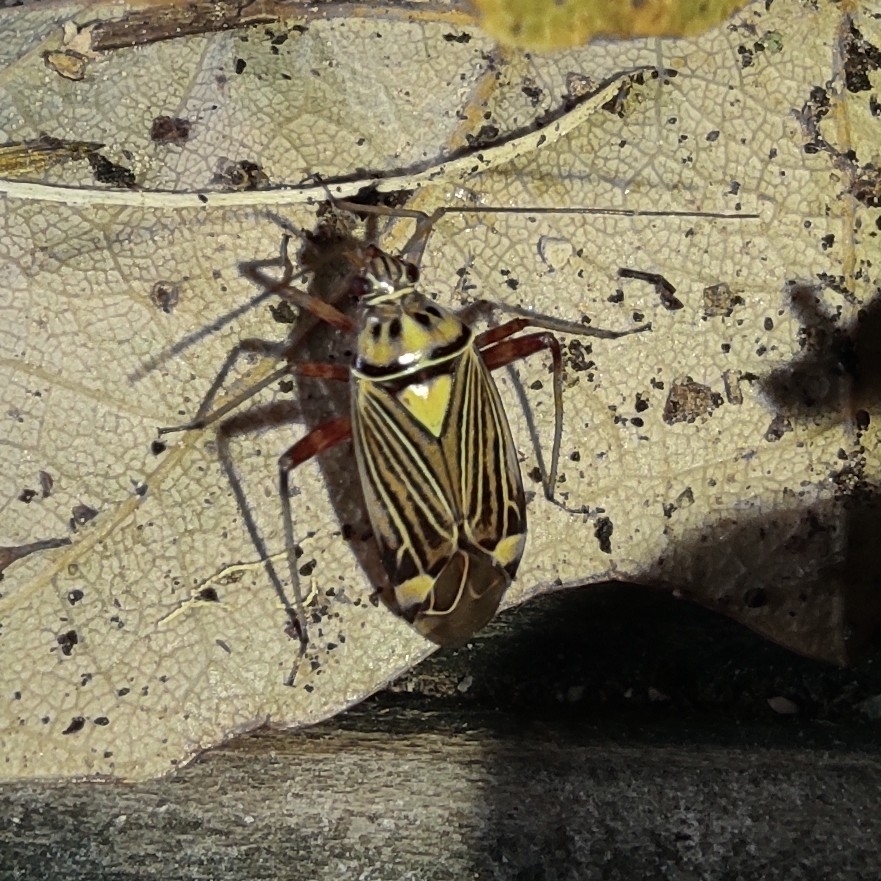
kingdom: Animalia
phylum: Arthropoda
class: Insecta
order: Hemiptera
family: Miridae
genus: Rhabdomiris
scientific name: Rhabdomiris striatellus
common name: Plant bug
